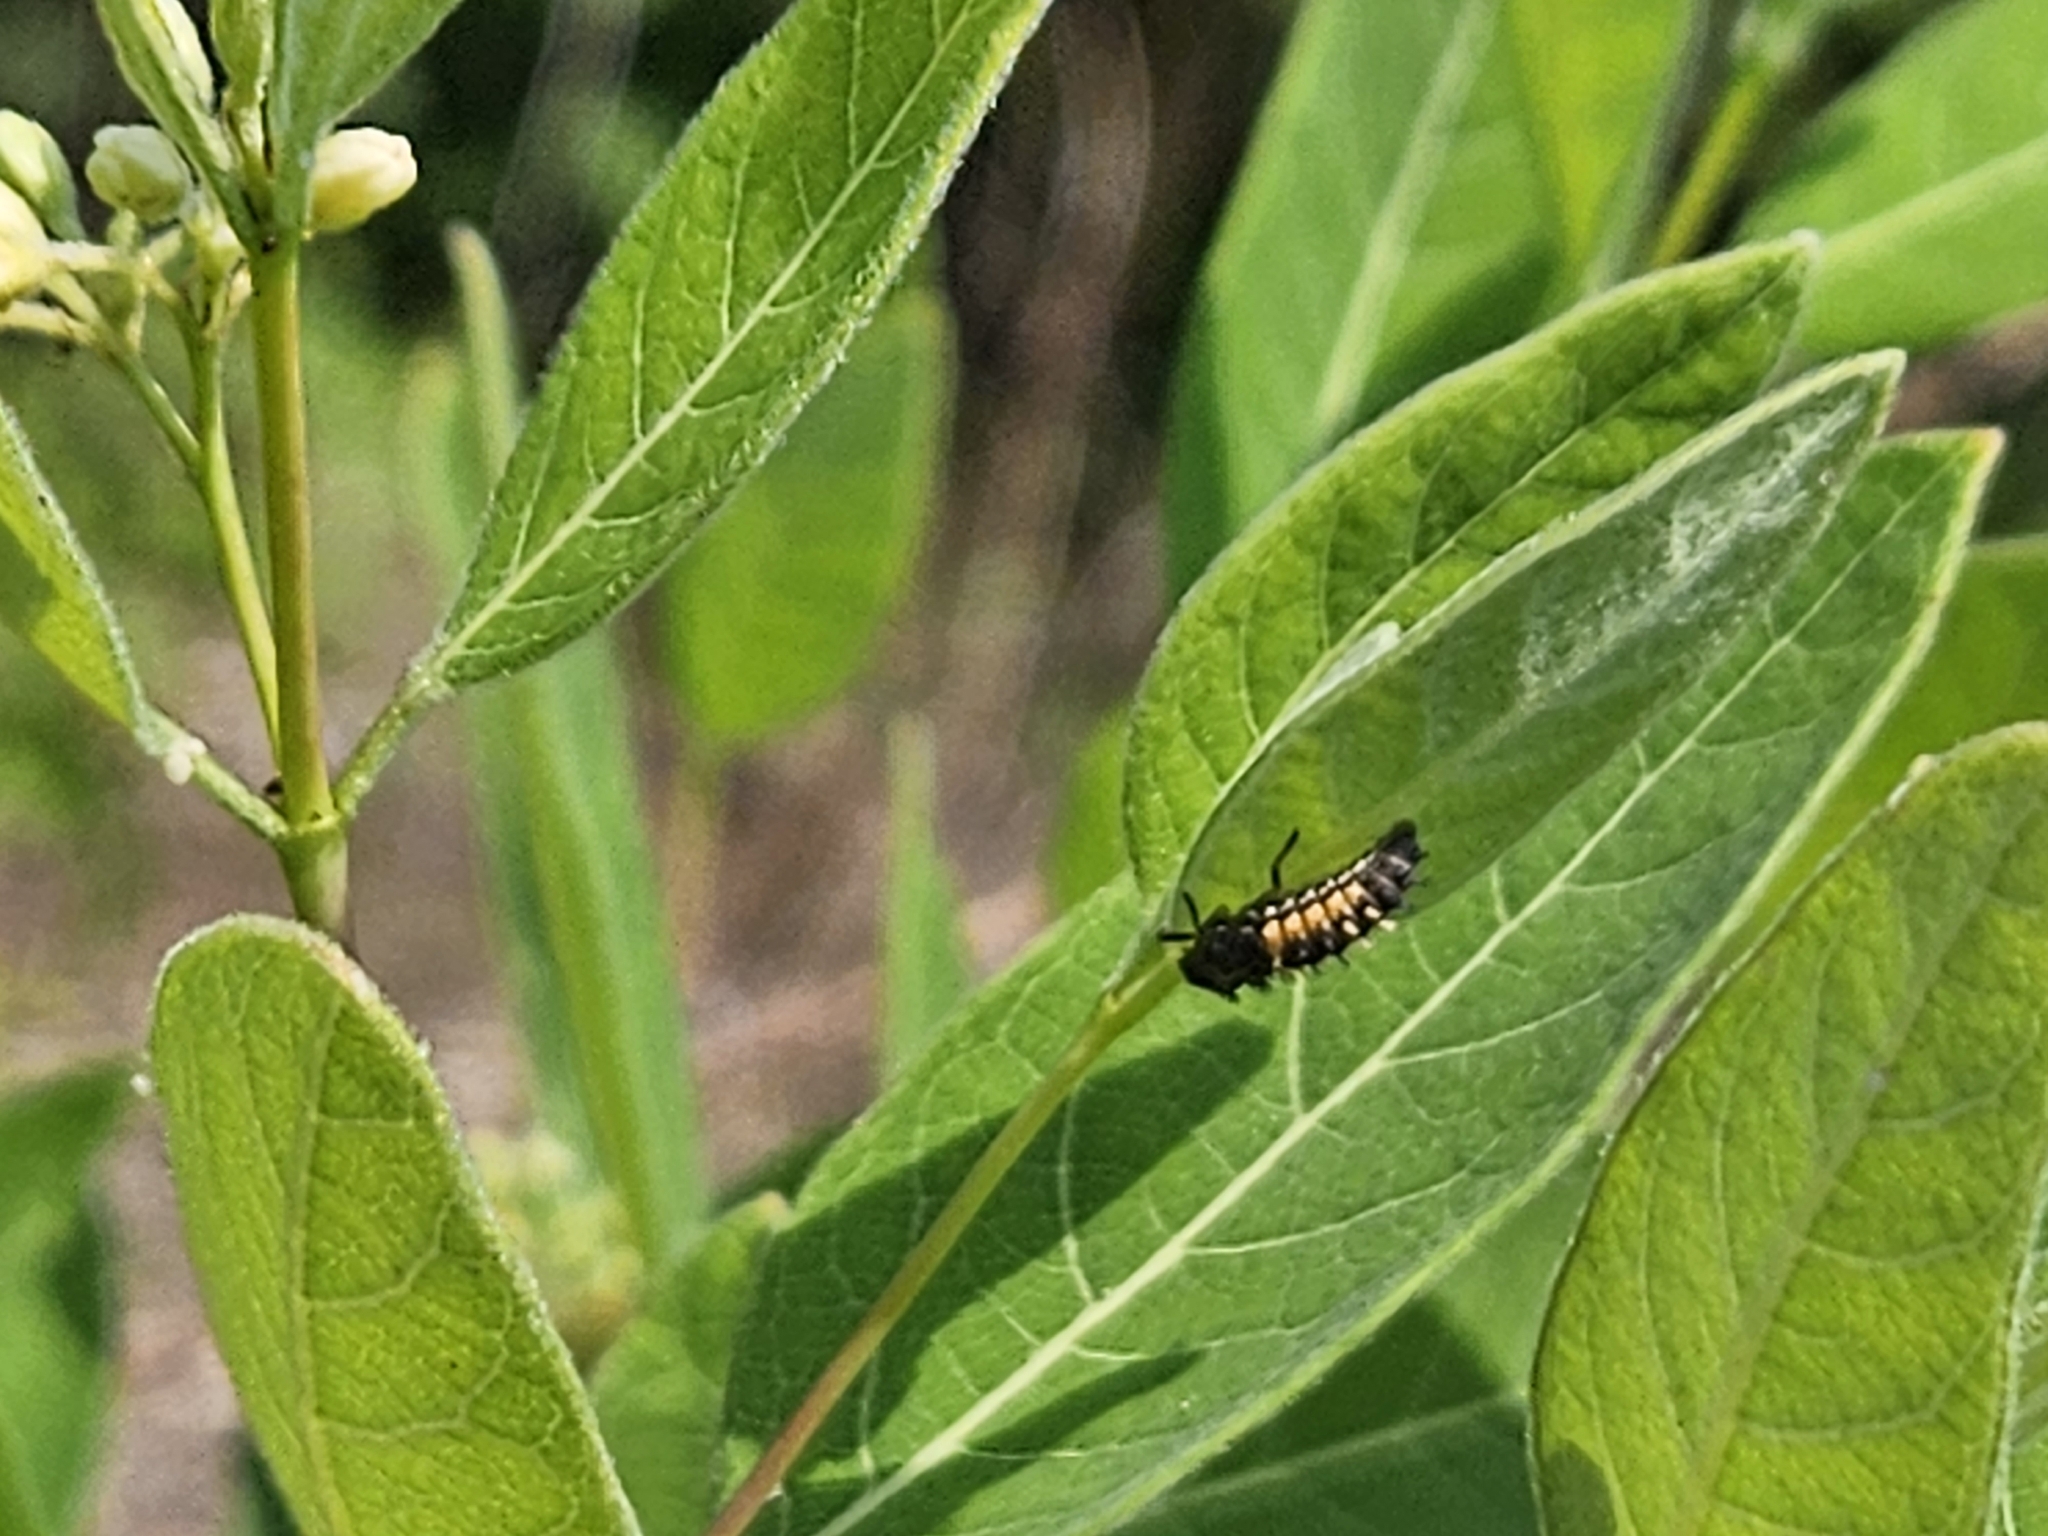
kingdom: Animalia
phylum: Arthropoda
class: Insecta
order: Coleoptera
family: Coccinellidae
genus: Harmonia
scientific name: Harmonia axyridis
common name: Harlequin ladybird
